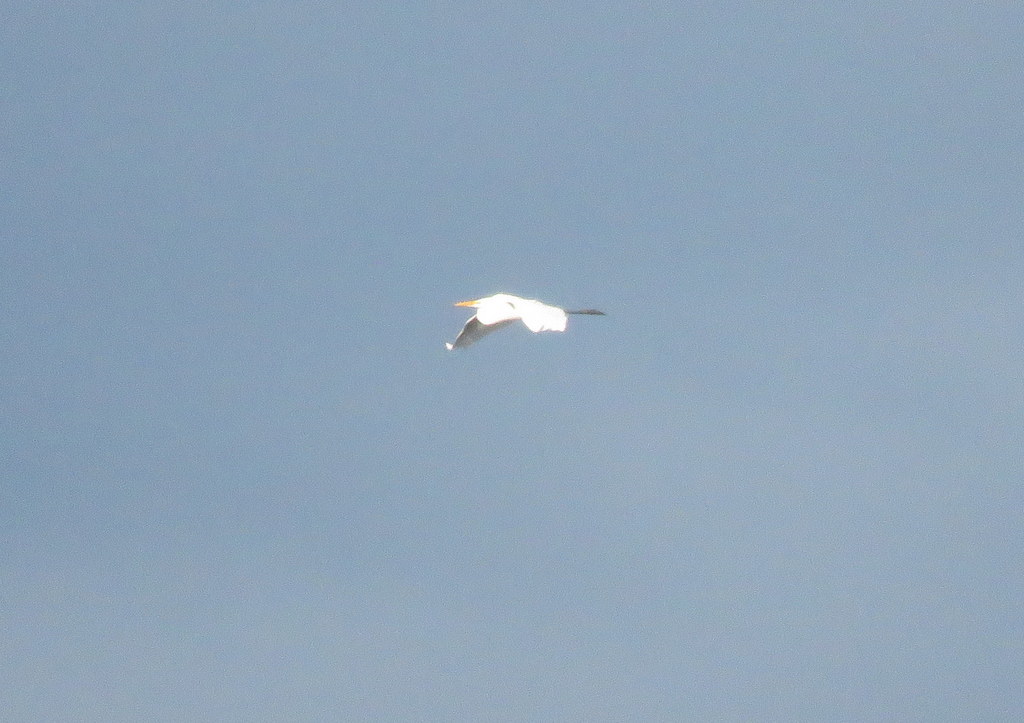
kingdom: Animalia
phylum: Chordata
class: Aves
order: Pelecaniformes
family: Ardeidae
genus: Ardea
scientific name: Ardea alba
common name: Great egret
